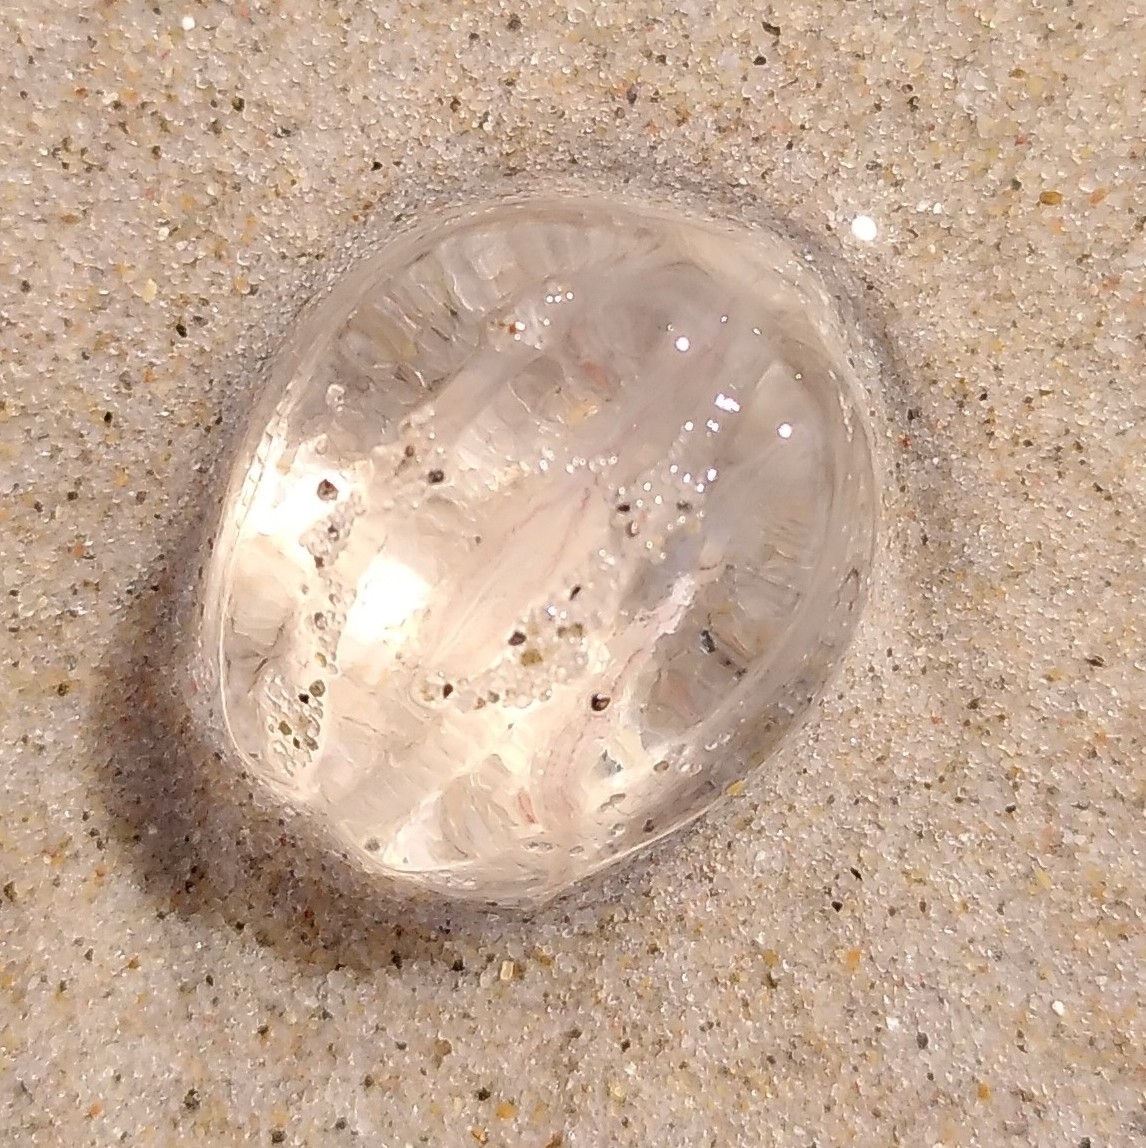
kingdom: Animalia
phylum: Ctenophora
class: Tentaculata
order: Cydippida
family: Pleurobrachiidae
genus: Pleurobrachia
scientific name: Pleurobrachia pileus
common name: Sea gooseberry
